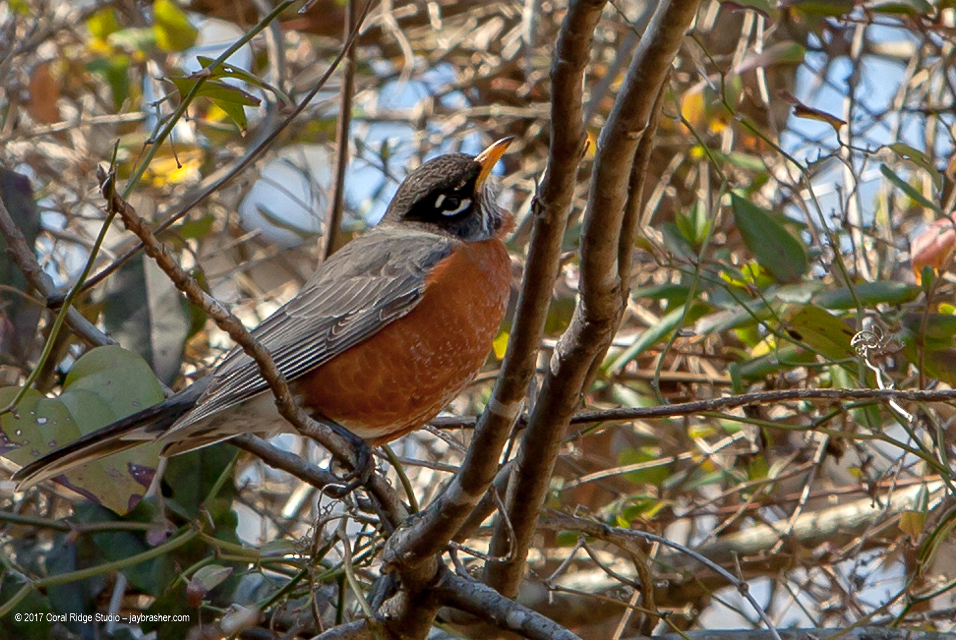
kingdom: Animalia
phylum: Chordata
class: Aves
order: Passeriformes
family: Turdidae
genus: Turdus
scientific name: Turdus migratorius
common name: American robin
